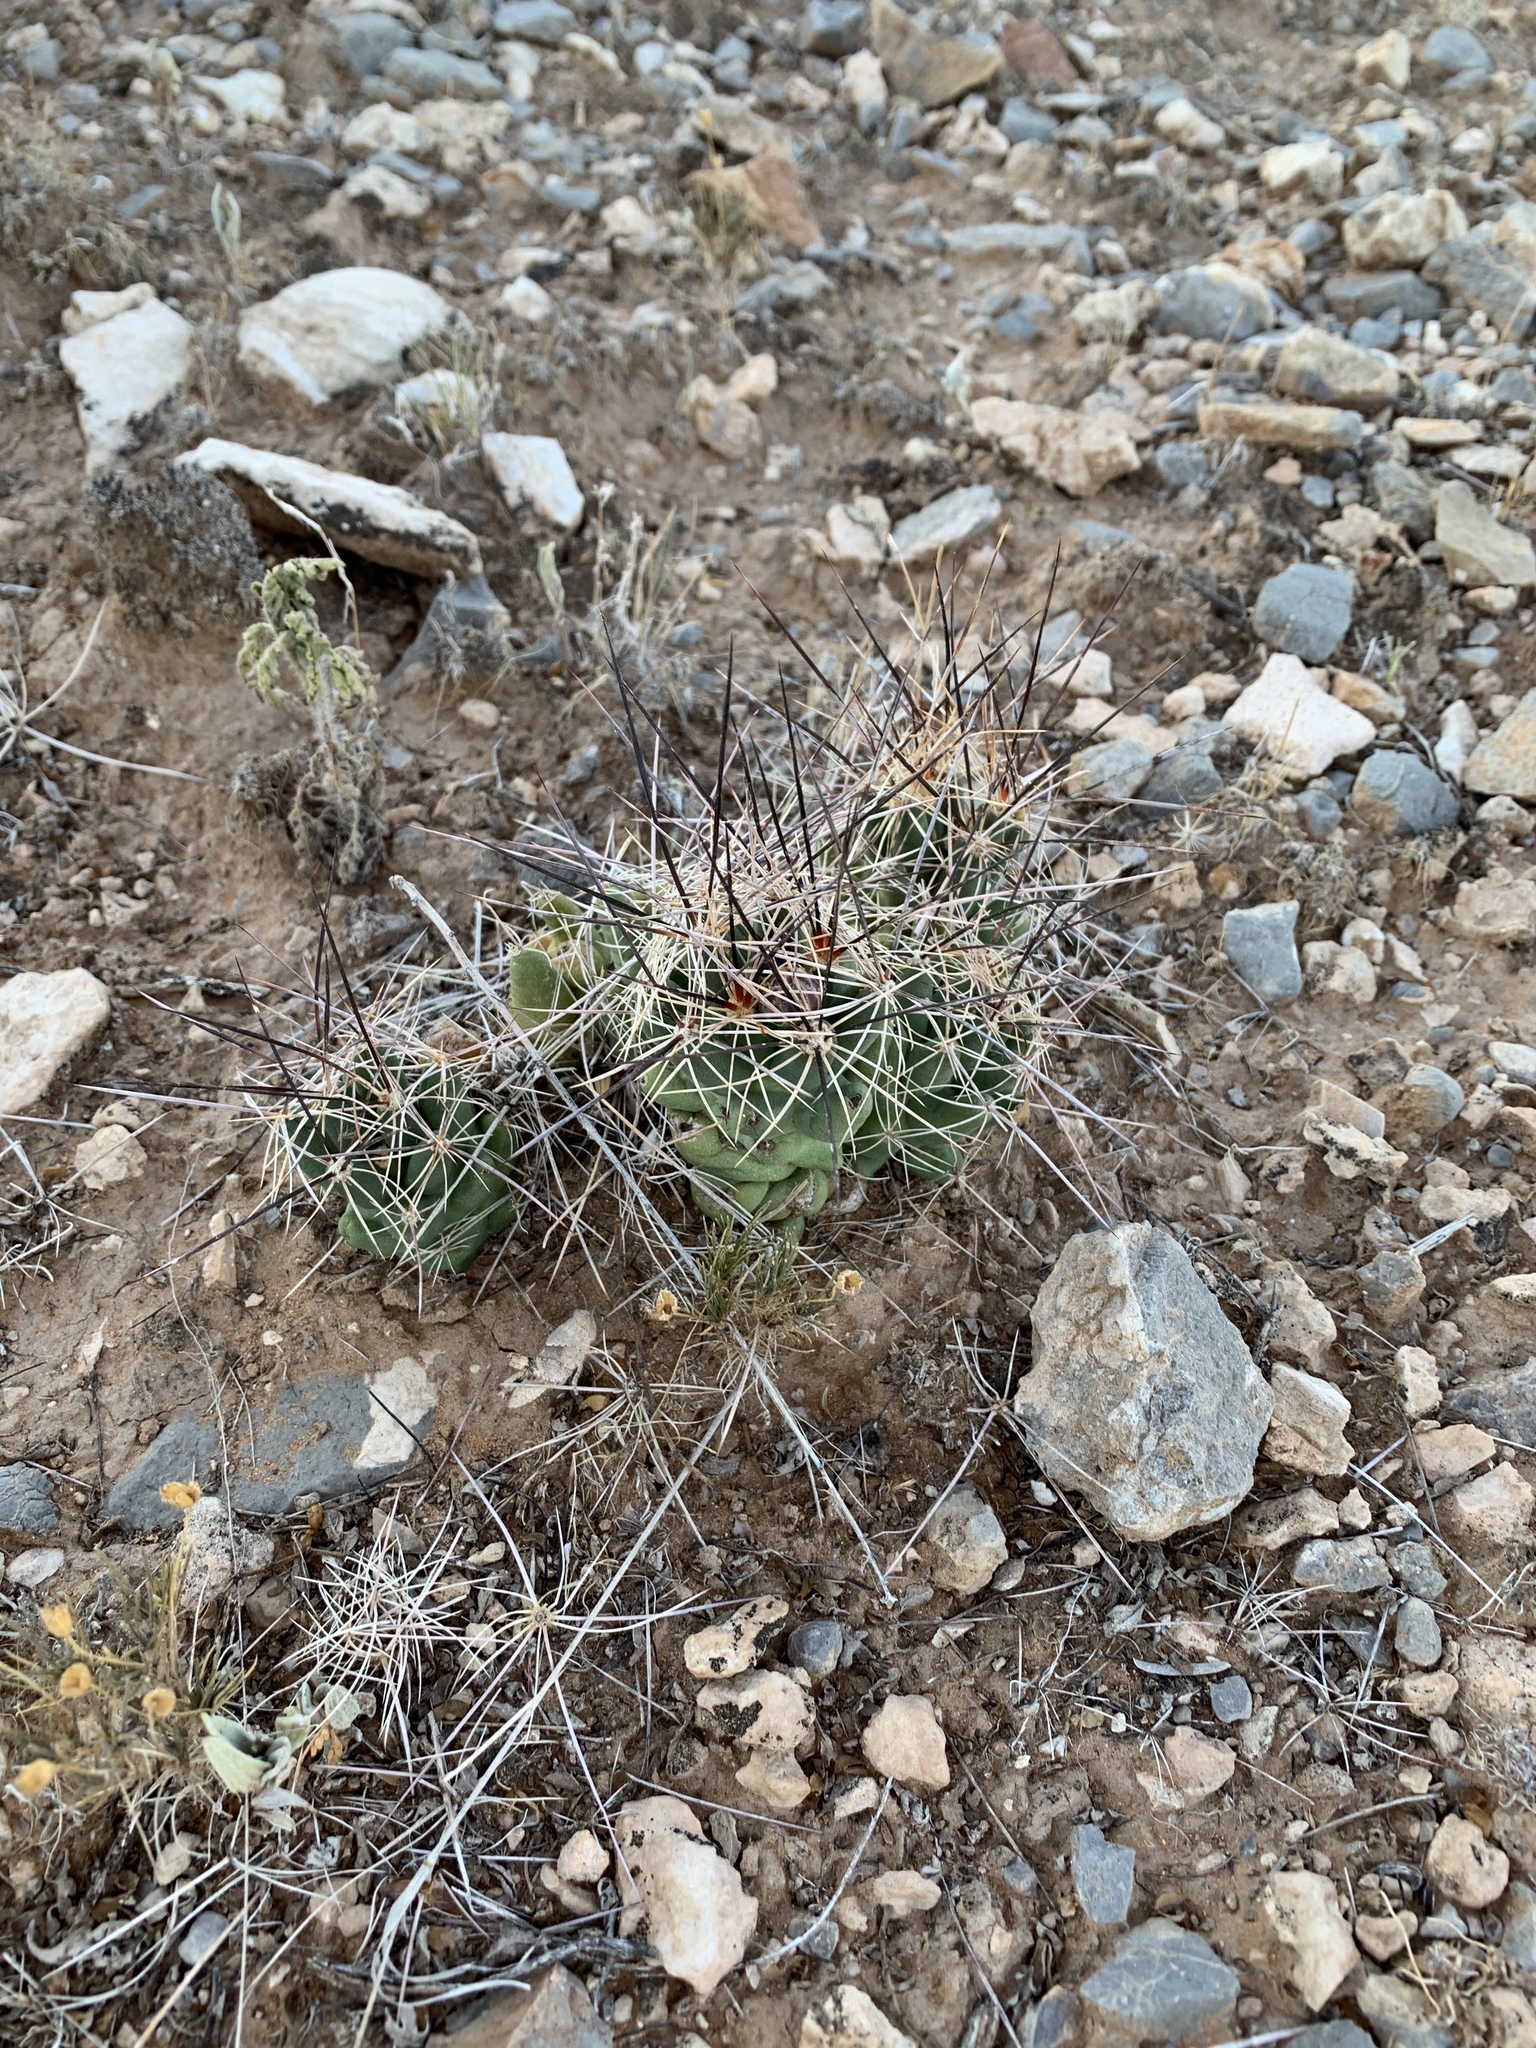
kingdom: Plantae
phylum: Tracheophyta
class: Magnoliopsida
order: Caryophyllales
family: Cactaceae
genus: Coryphantha
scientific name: Coryphantha macromeris
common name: Nipple beehive cactus
